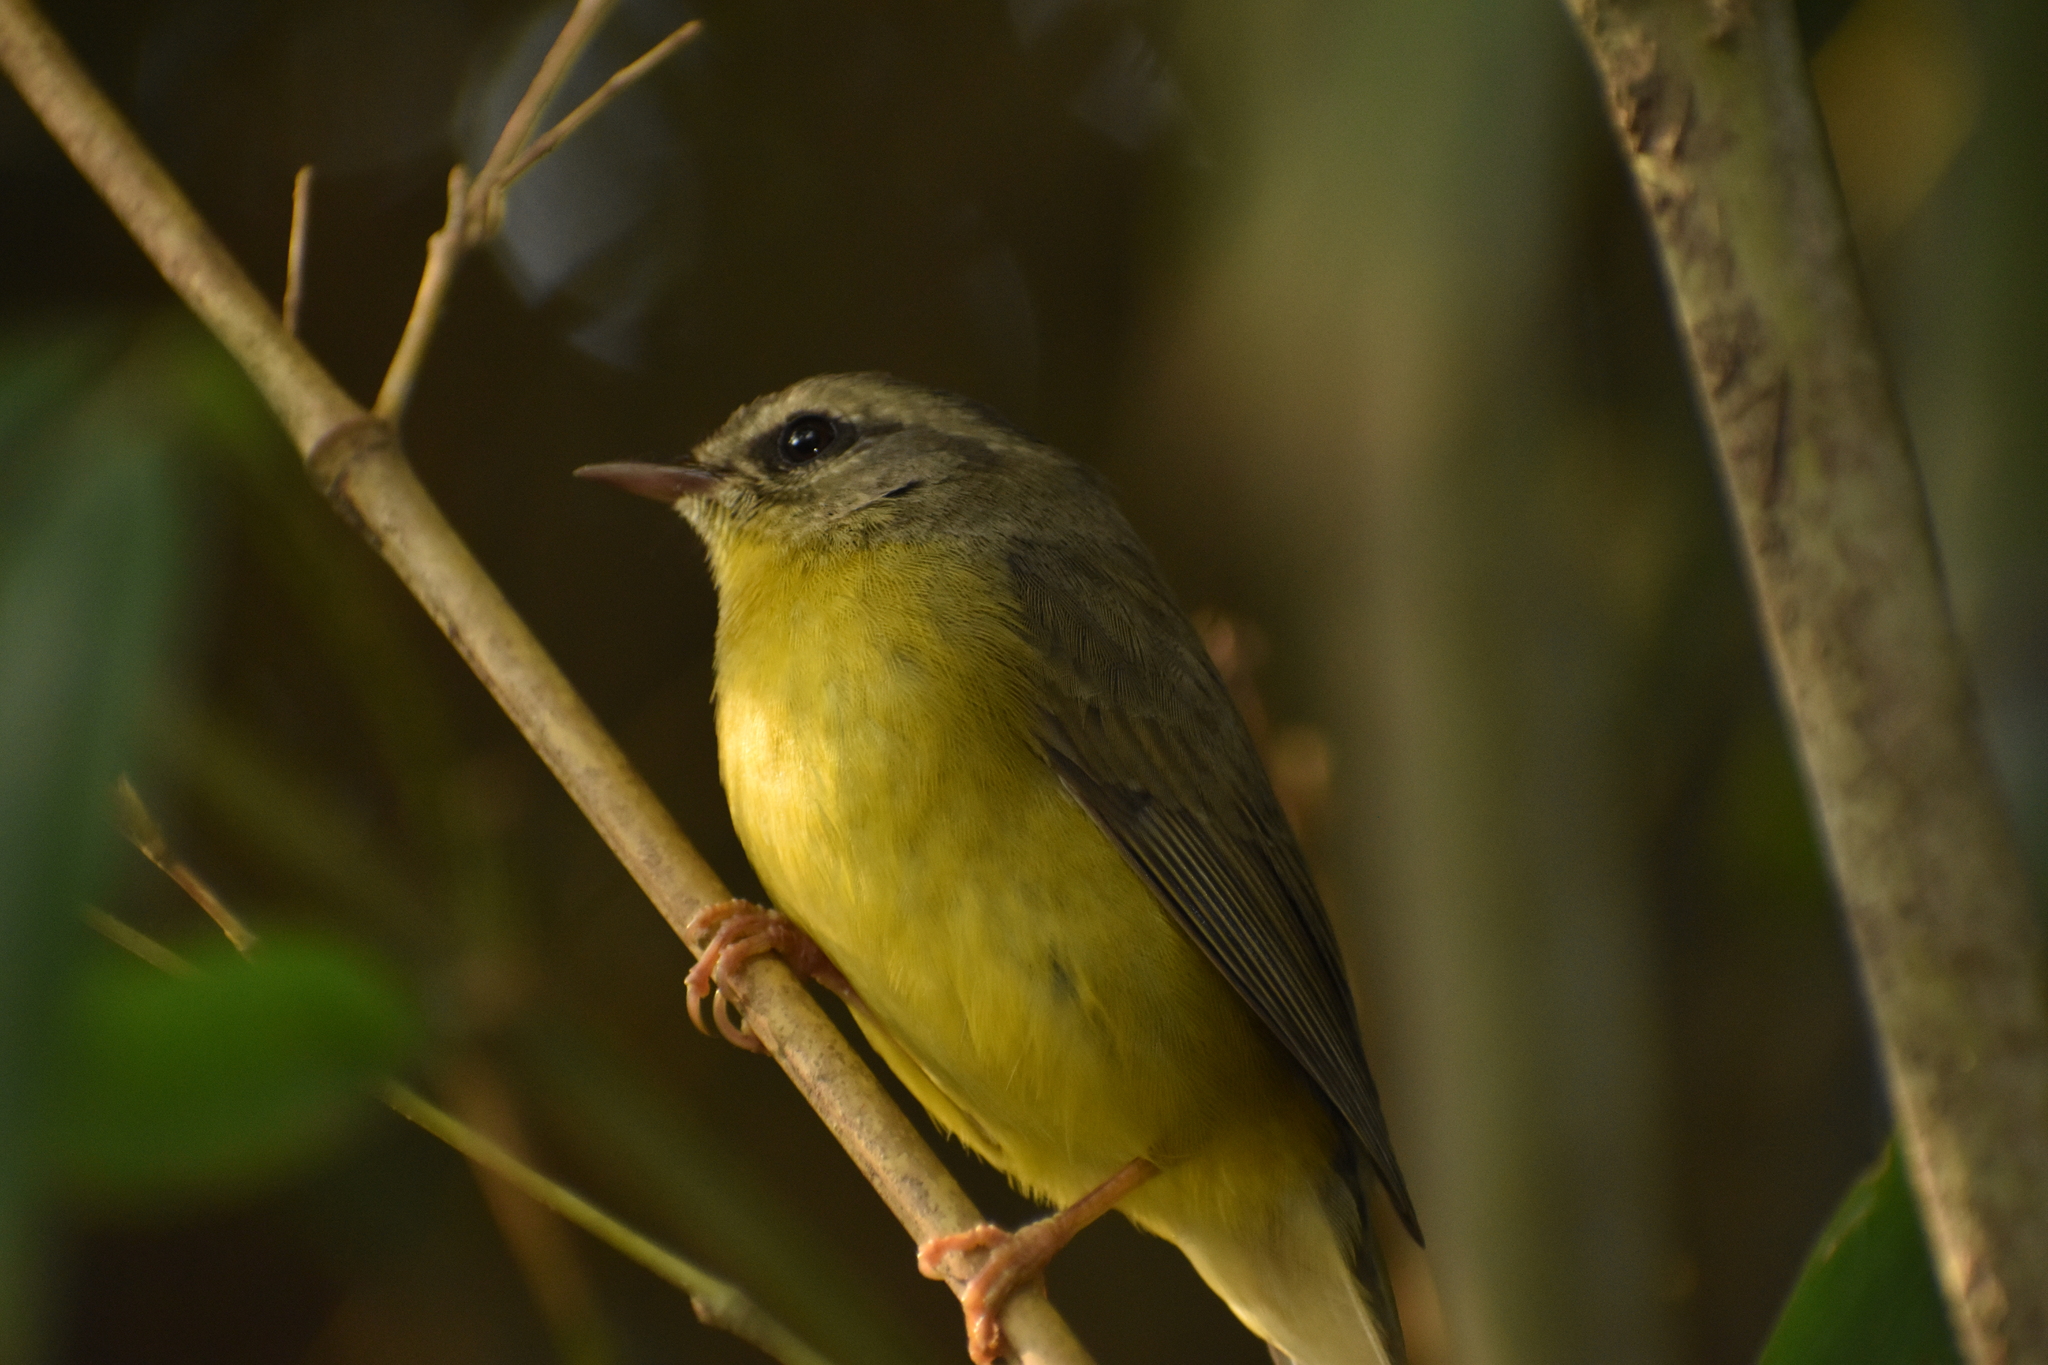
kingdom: Animalia
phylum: Chordata
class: Aves
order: Passeriformes
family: Parulidae
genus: Basileuterus
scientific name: Basileuterus culicivorus
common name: Golden-crowned warbler
